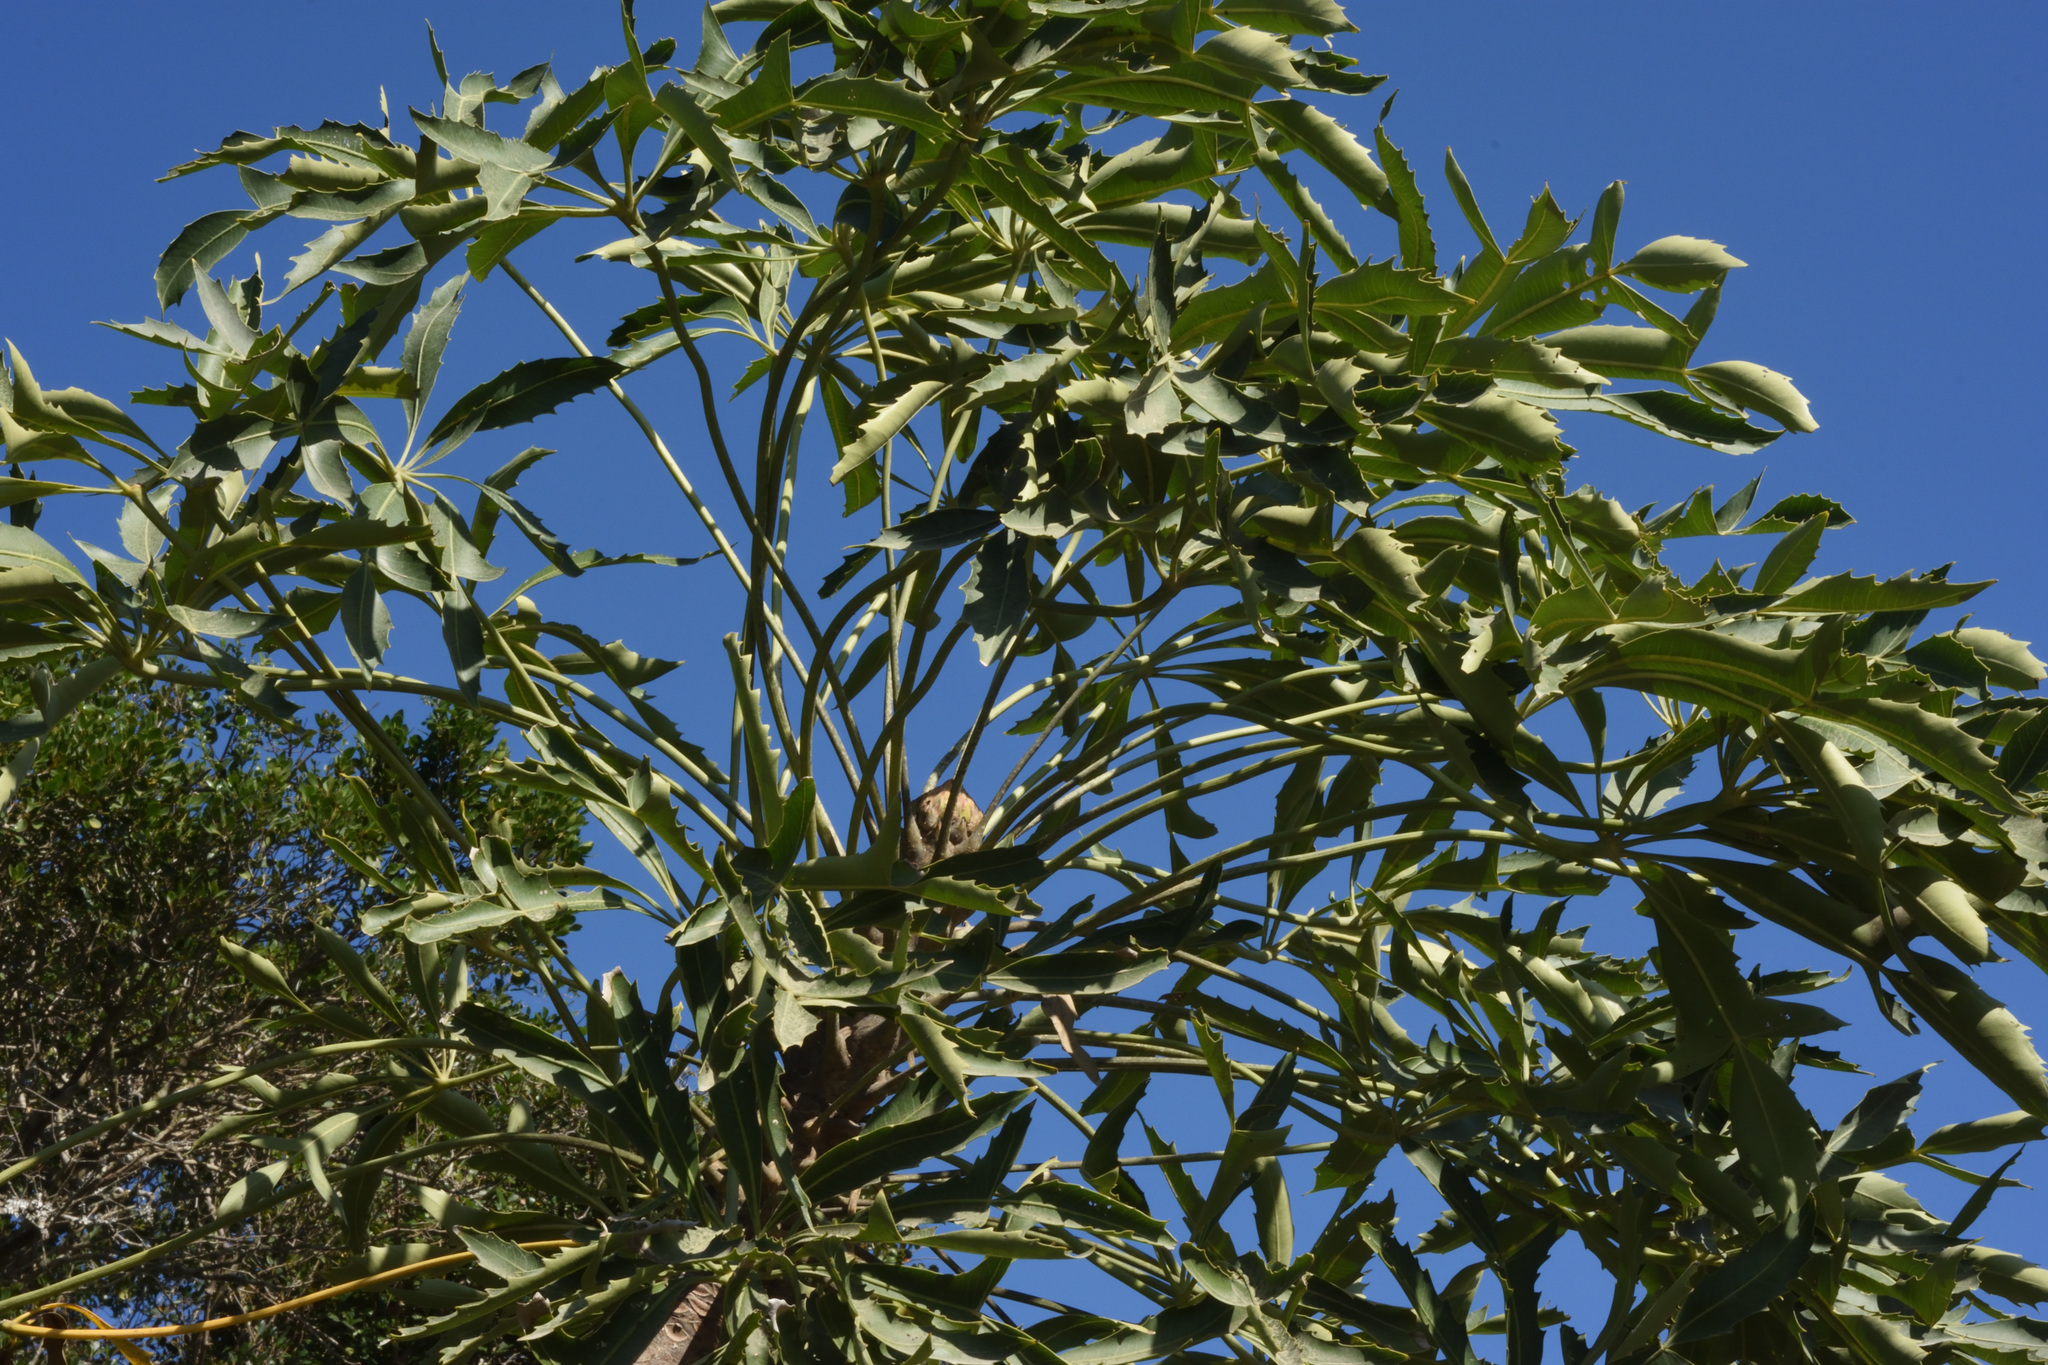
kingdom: Plantae
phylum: Tracheophyta
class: Magnoliopsida
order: Apiales
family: Araliaceae
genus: Cussonia
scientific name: Cussonia spicata
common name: Common cabbagetree
